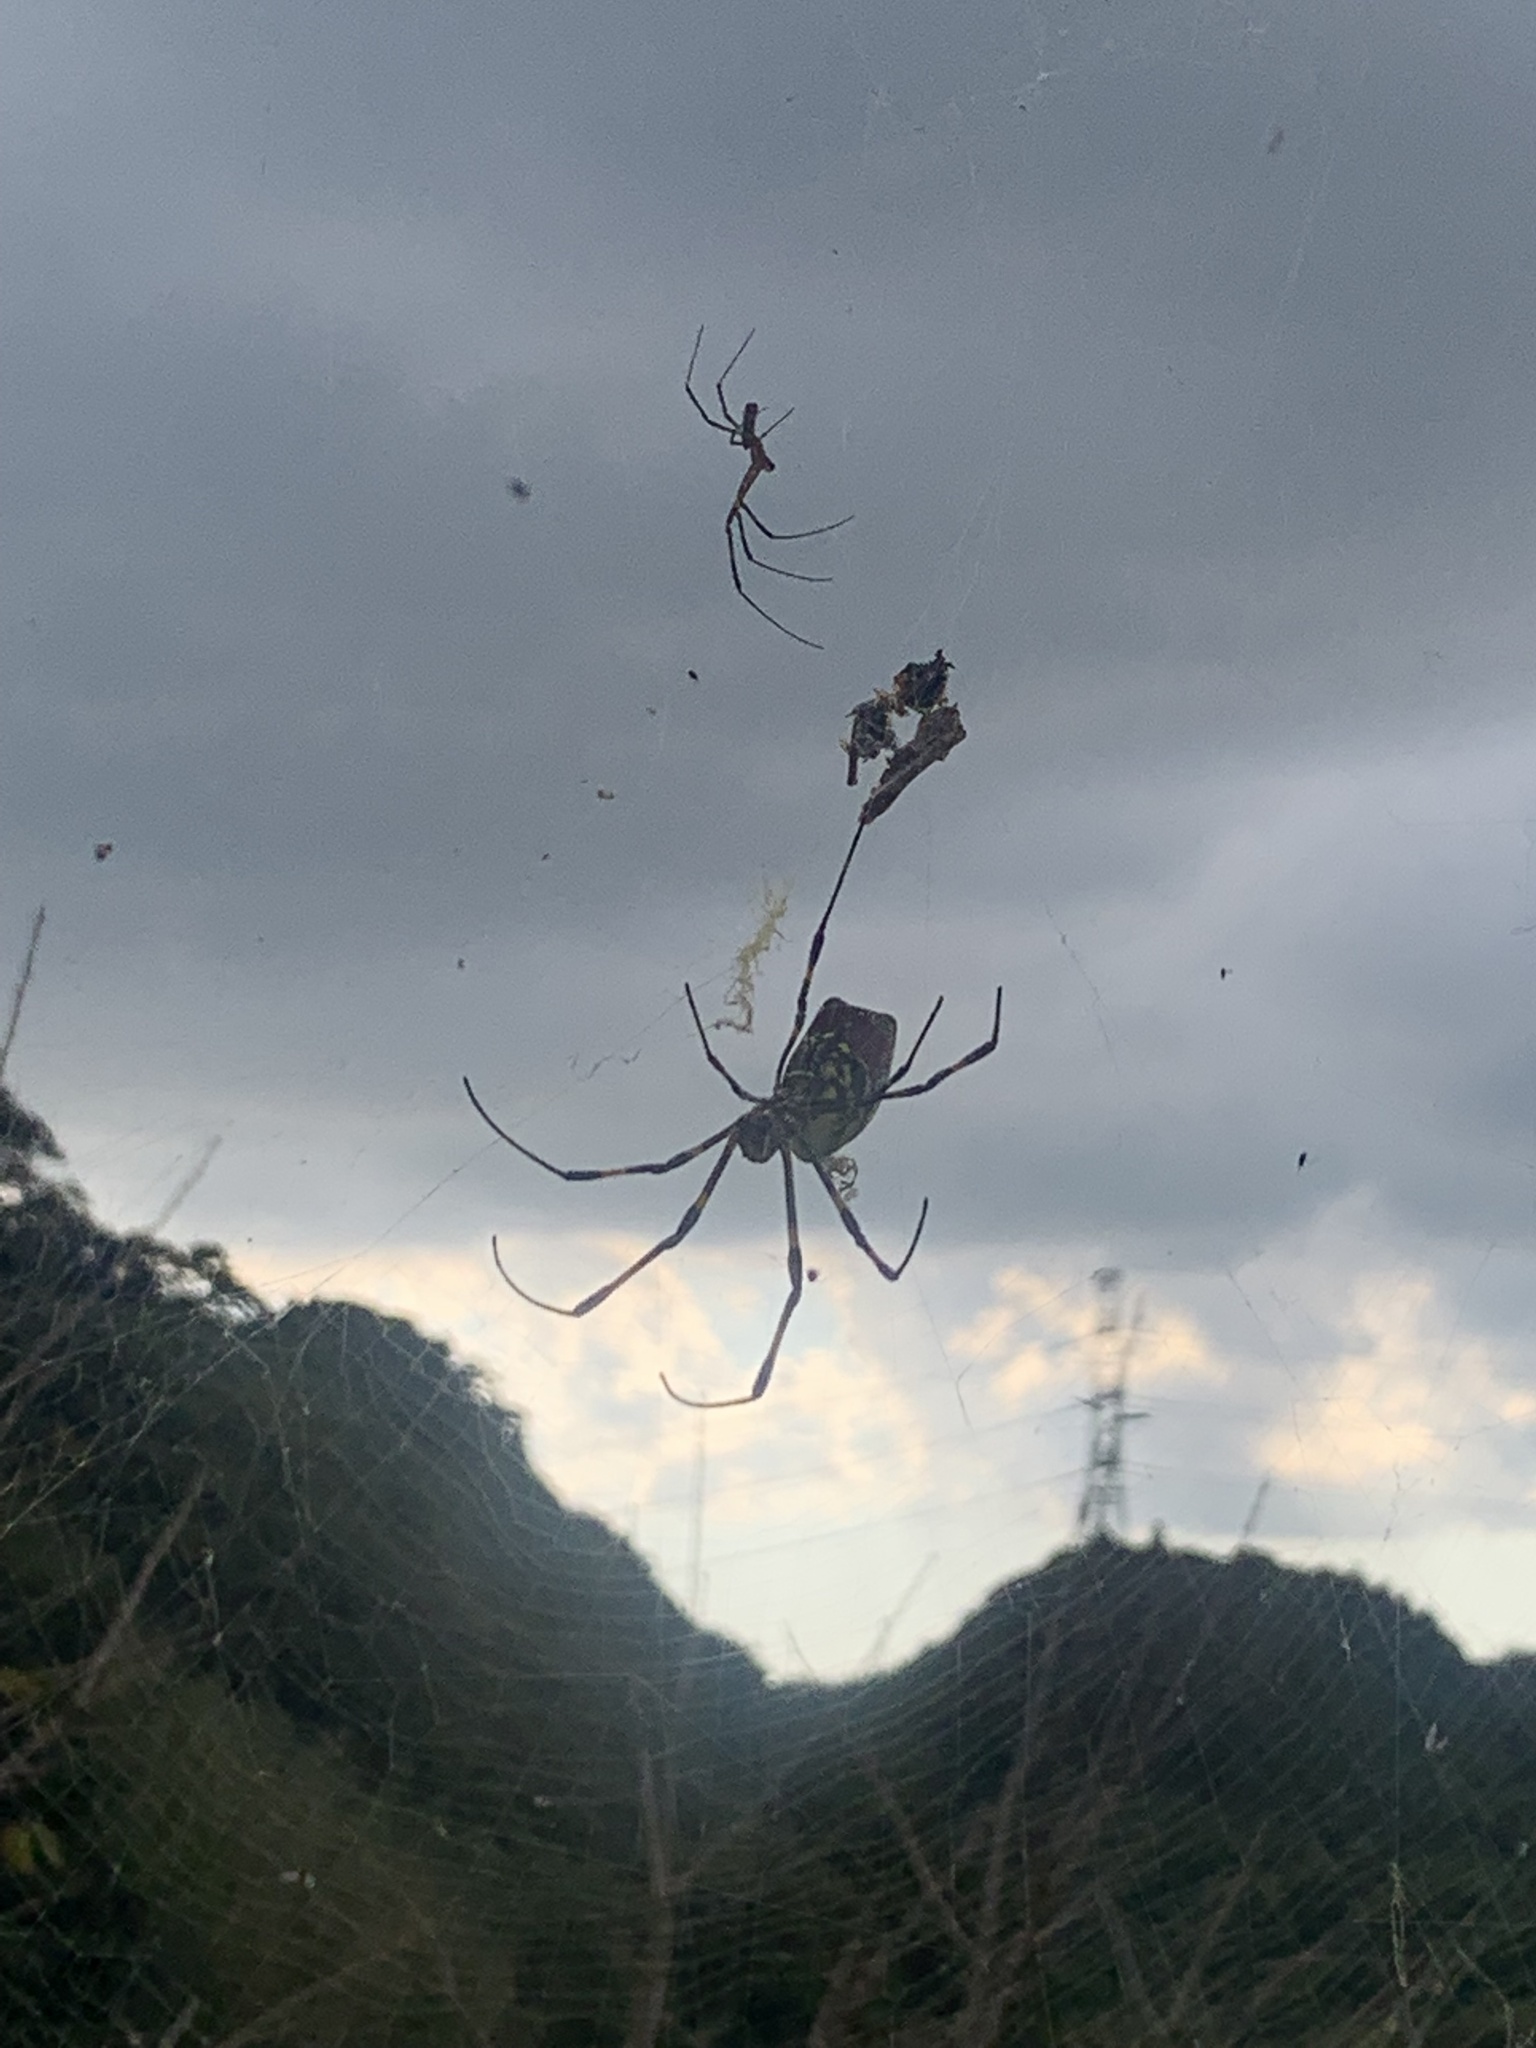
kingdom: Animalia
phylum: Arthropoda
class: Arachnida
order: Araneae
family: Araneidae
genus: Trichonephila
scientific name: Trichonephila clavata
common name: Jorō spider
